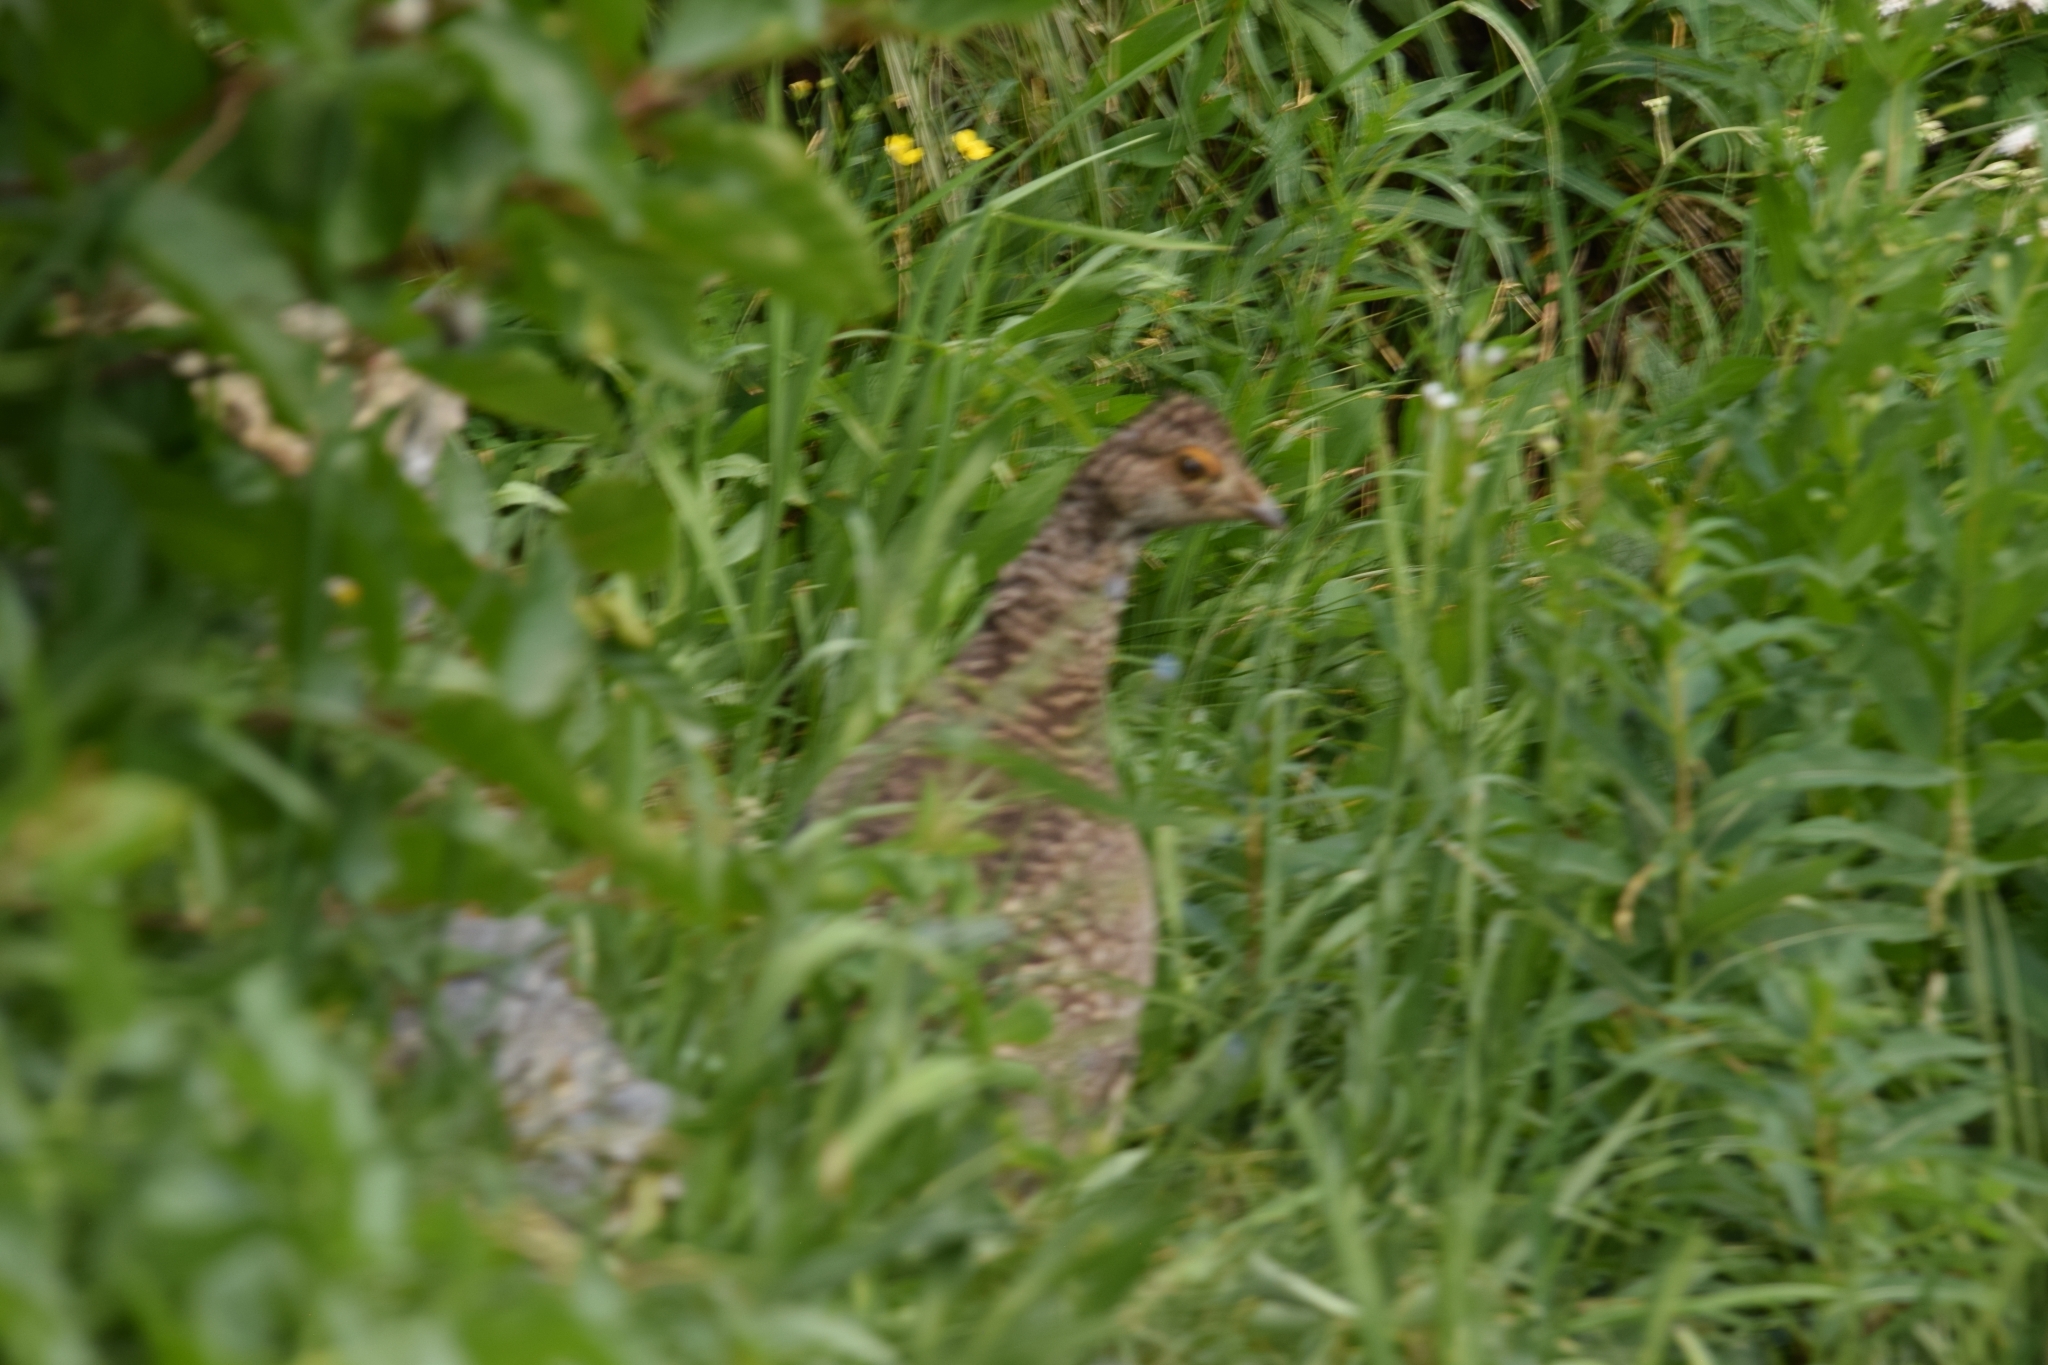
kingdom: Animalia
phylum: Chordata
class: Aves
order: Galliformes
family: Phasianidae
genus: Dendragapus
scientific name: Dendragapus obscurus
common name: Dusky grouse
